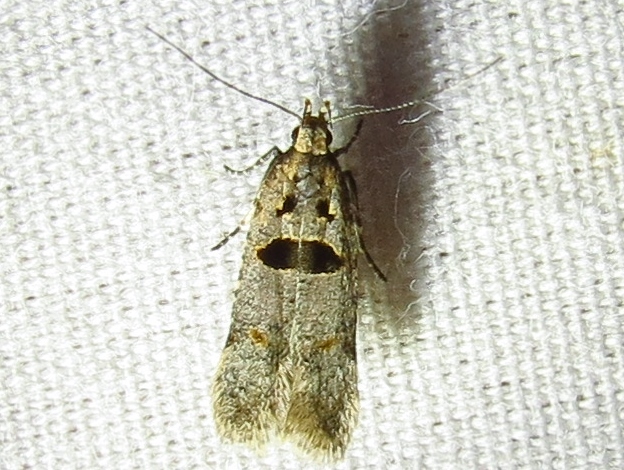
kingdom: Animalia
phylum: Arthropoda
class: Insecta
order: Lepidoptera
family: Gelechiidae
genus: Deltophora
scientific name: Deltophora glandiferella
